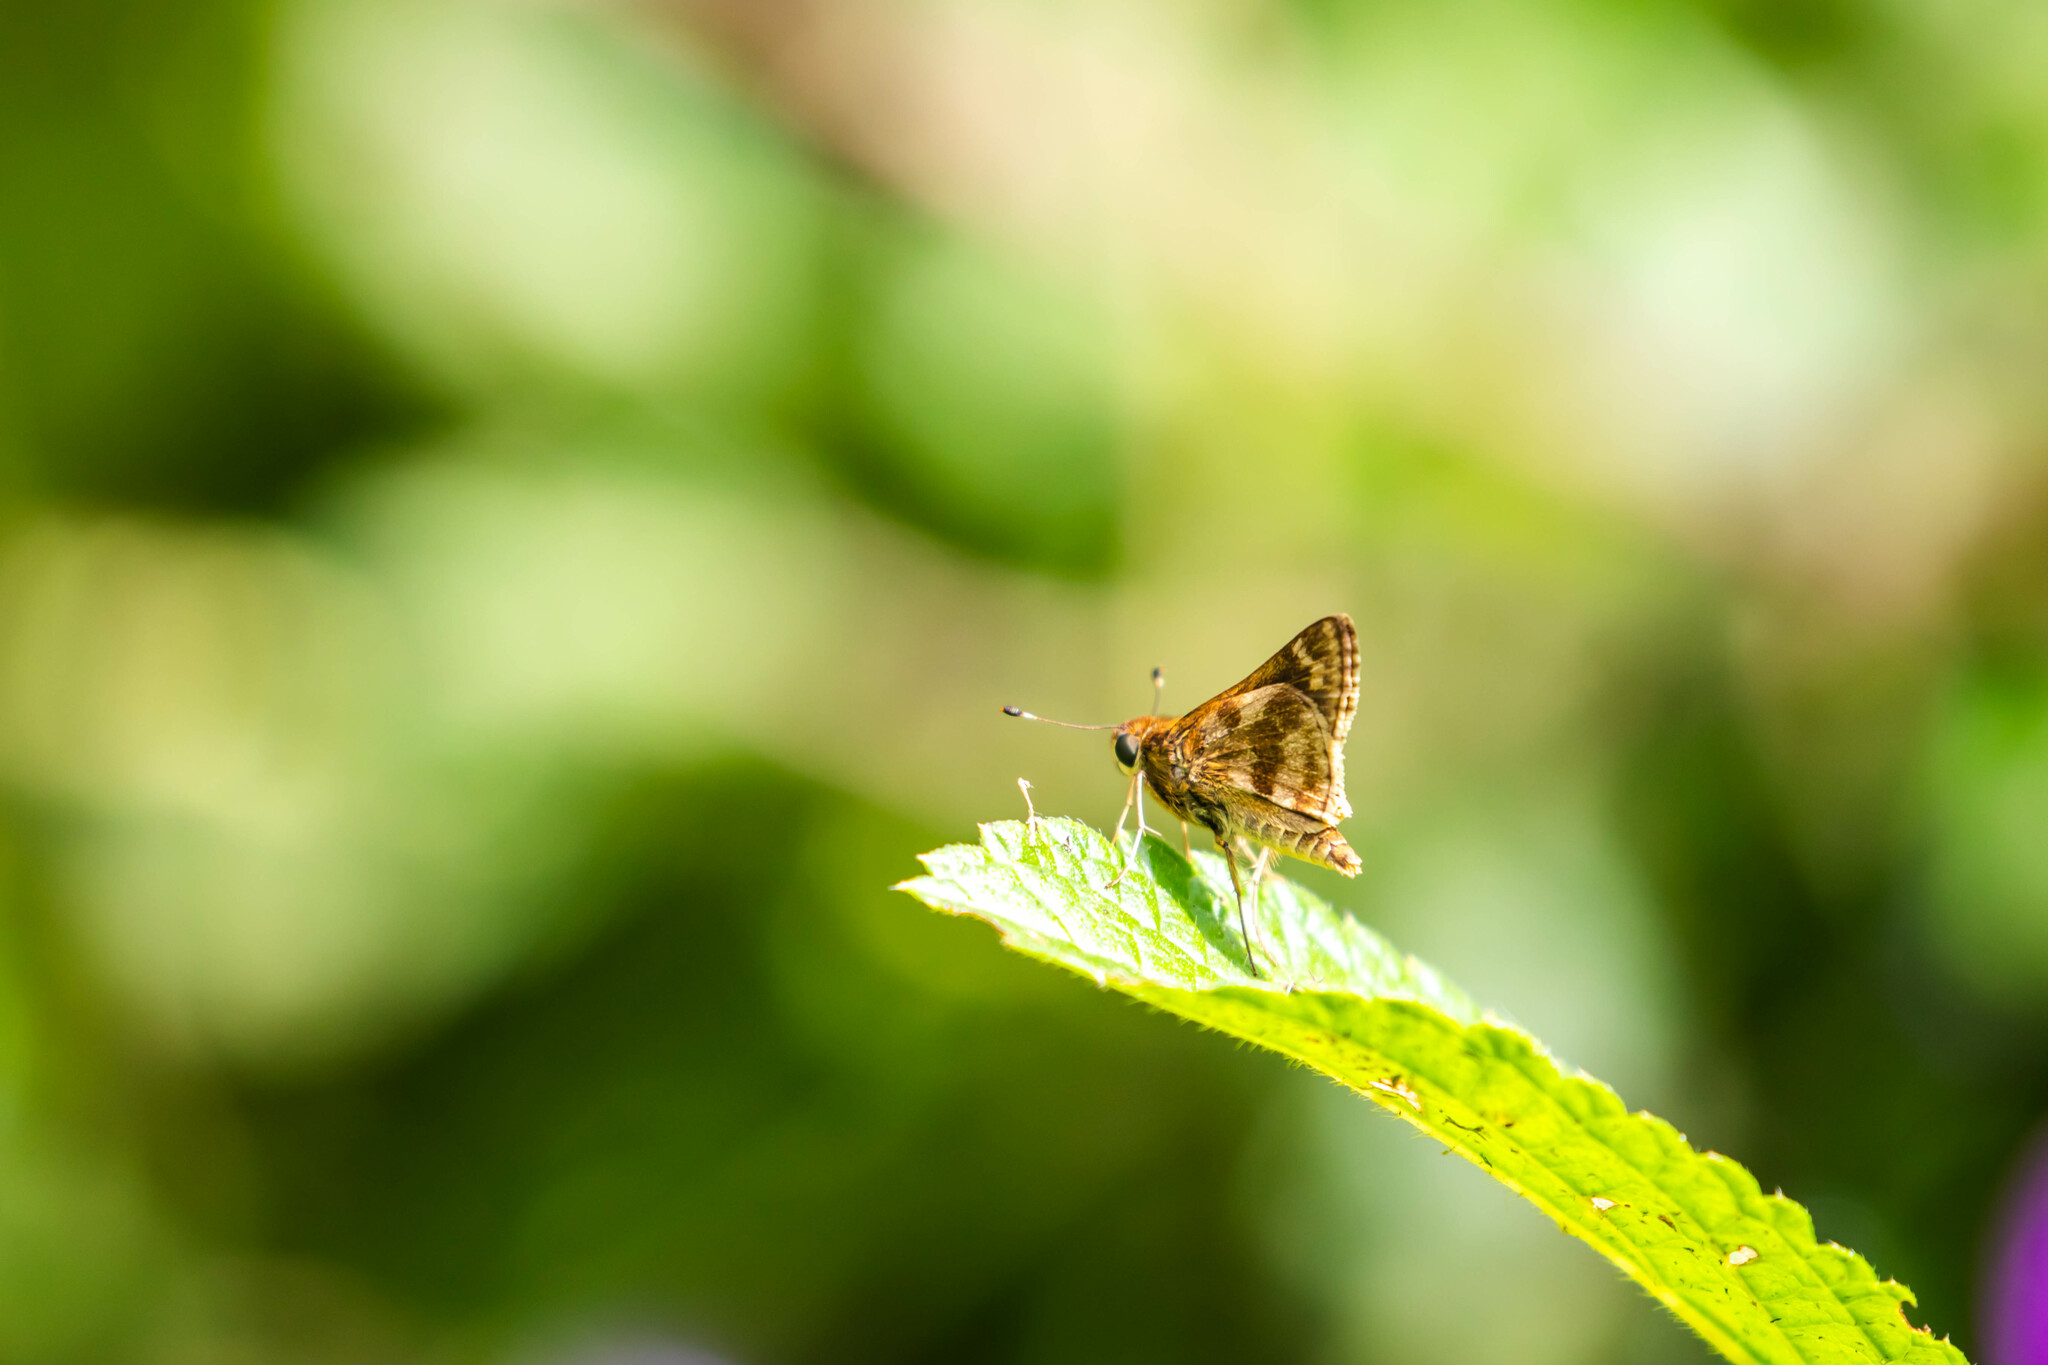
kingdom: Animalia
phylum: Arthropoda
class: Insecta
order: Lepidoptera
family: Hesperiidae
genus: Pompeius
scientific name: Pompeius pompeius
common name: Pompeius skipper
